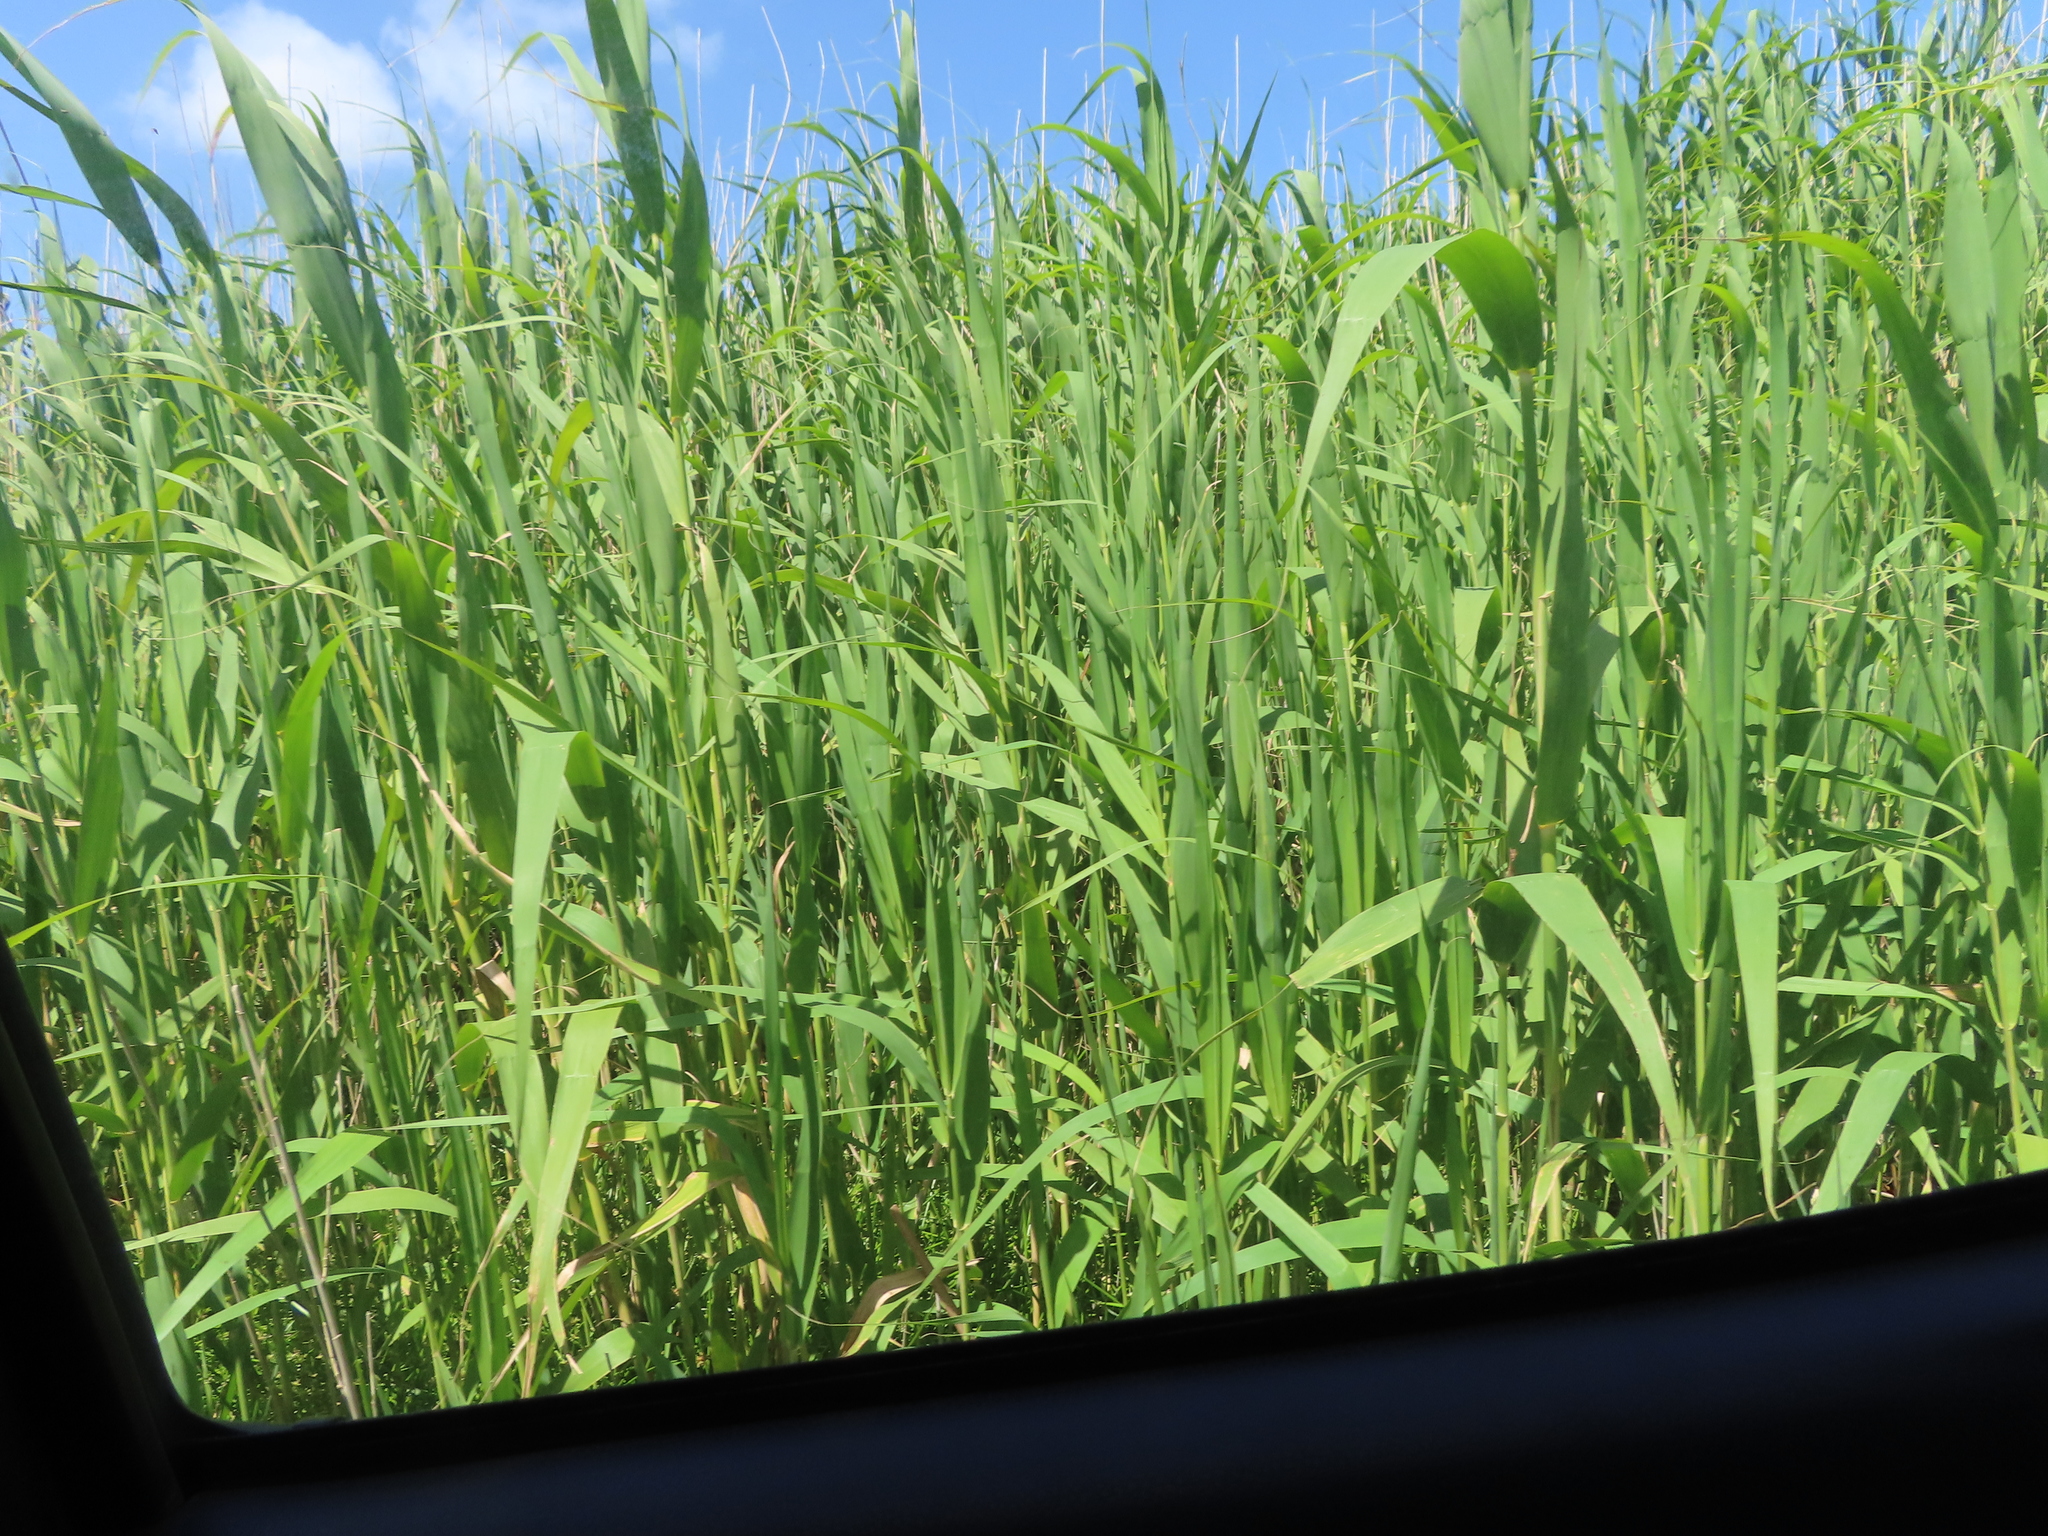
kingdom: Plantae
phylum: Tracheophyta
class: Liliopsida
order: Poales
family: Poaceae
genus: Phragmites
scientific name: Phragmites australis
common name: Common reed
